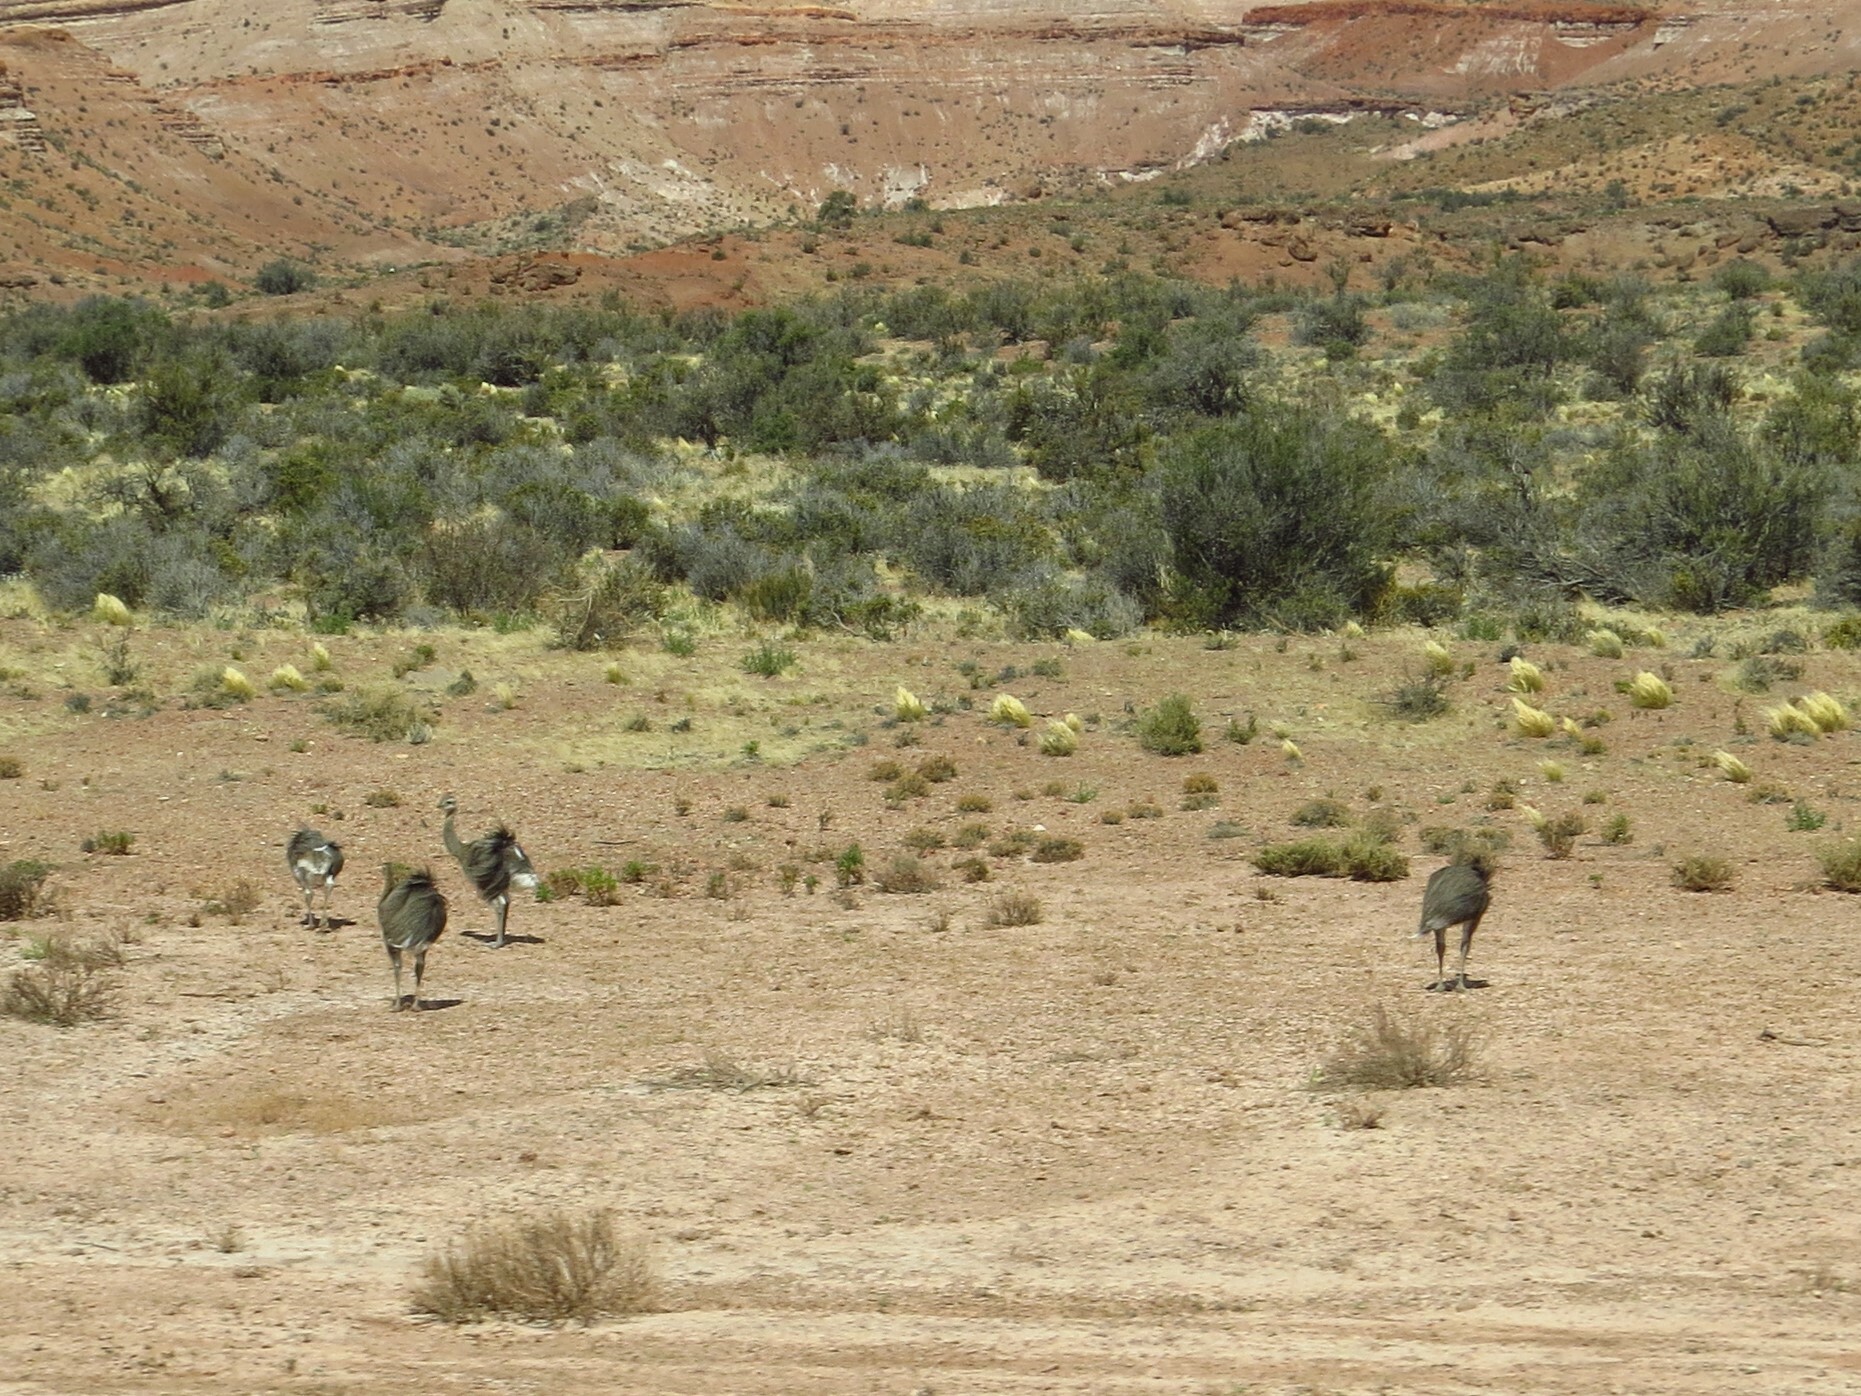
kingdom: Animalia
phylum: Chordata
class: Aves
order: Rheiformes
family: Rheidae
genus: Rhea
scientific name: Rhea pennata
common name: Lesser rhea
